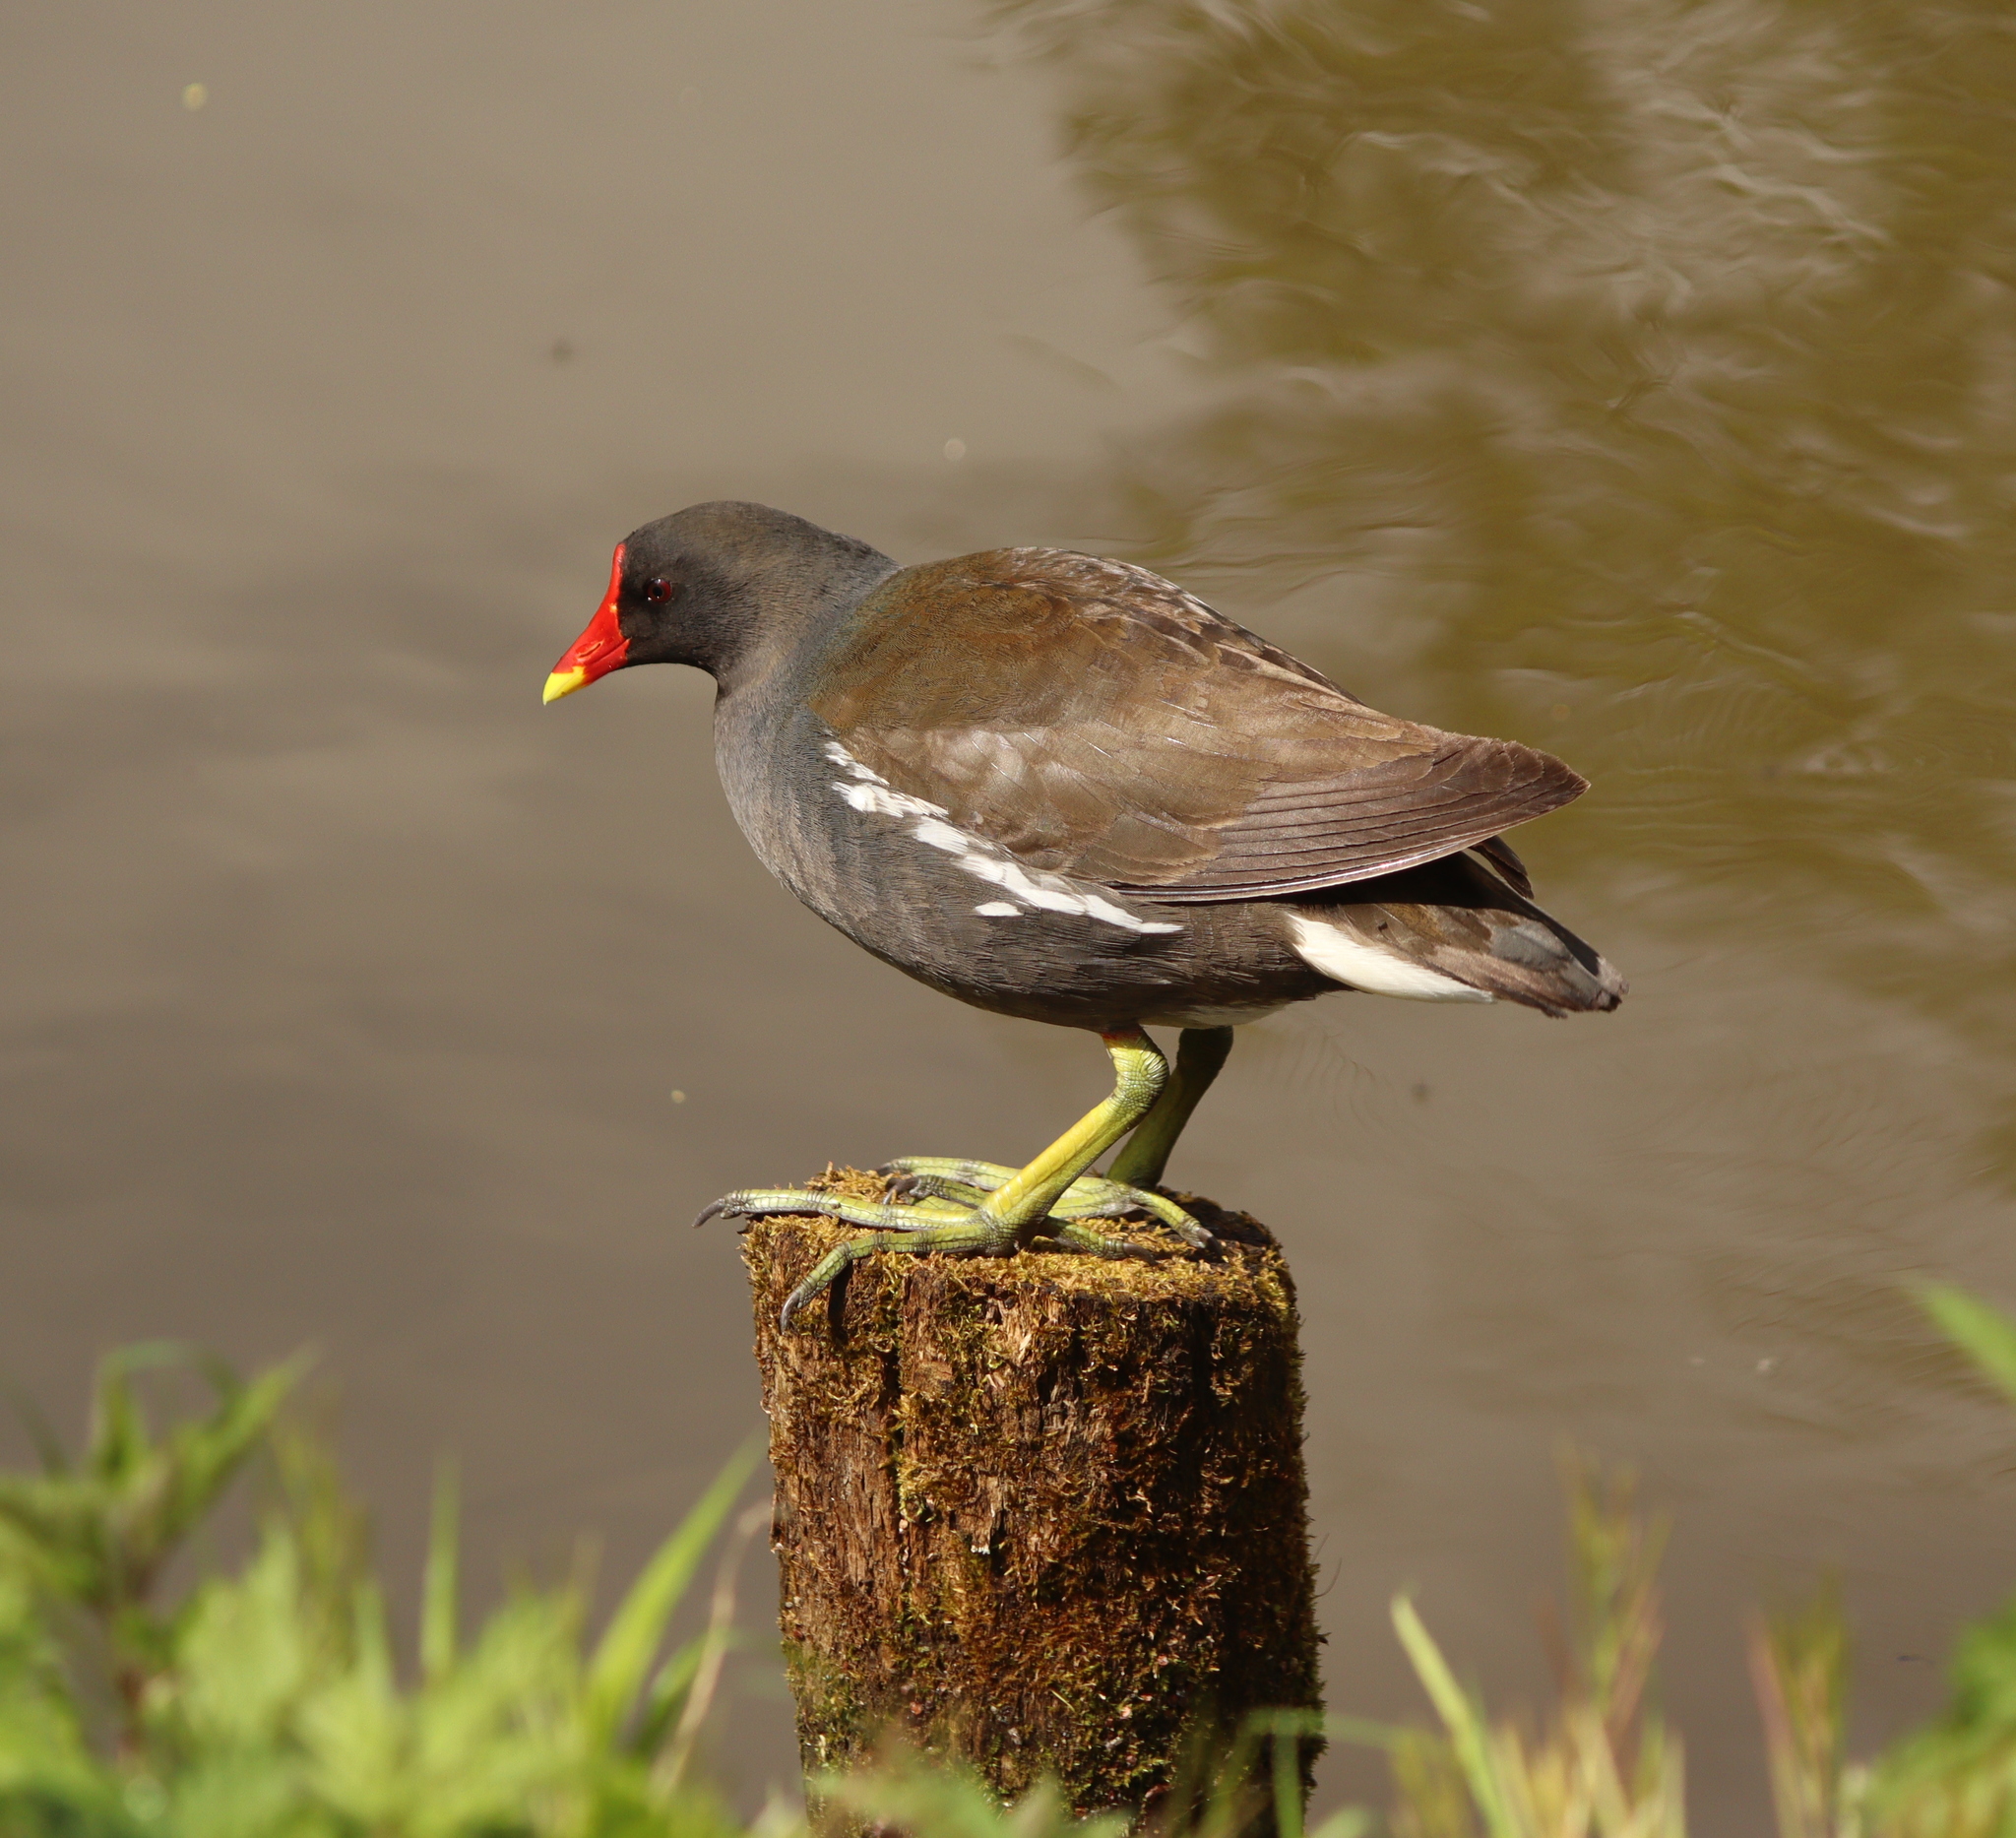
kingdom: Animalia
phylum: Chordata
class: Aves
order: Gruiformes
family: Rallidae
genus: Gallinula
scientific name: Gallinula chloropus
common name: Common moorhen
